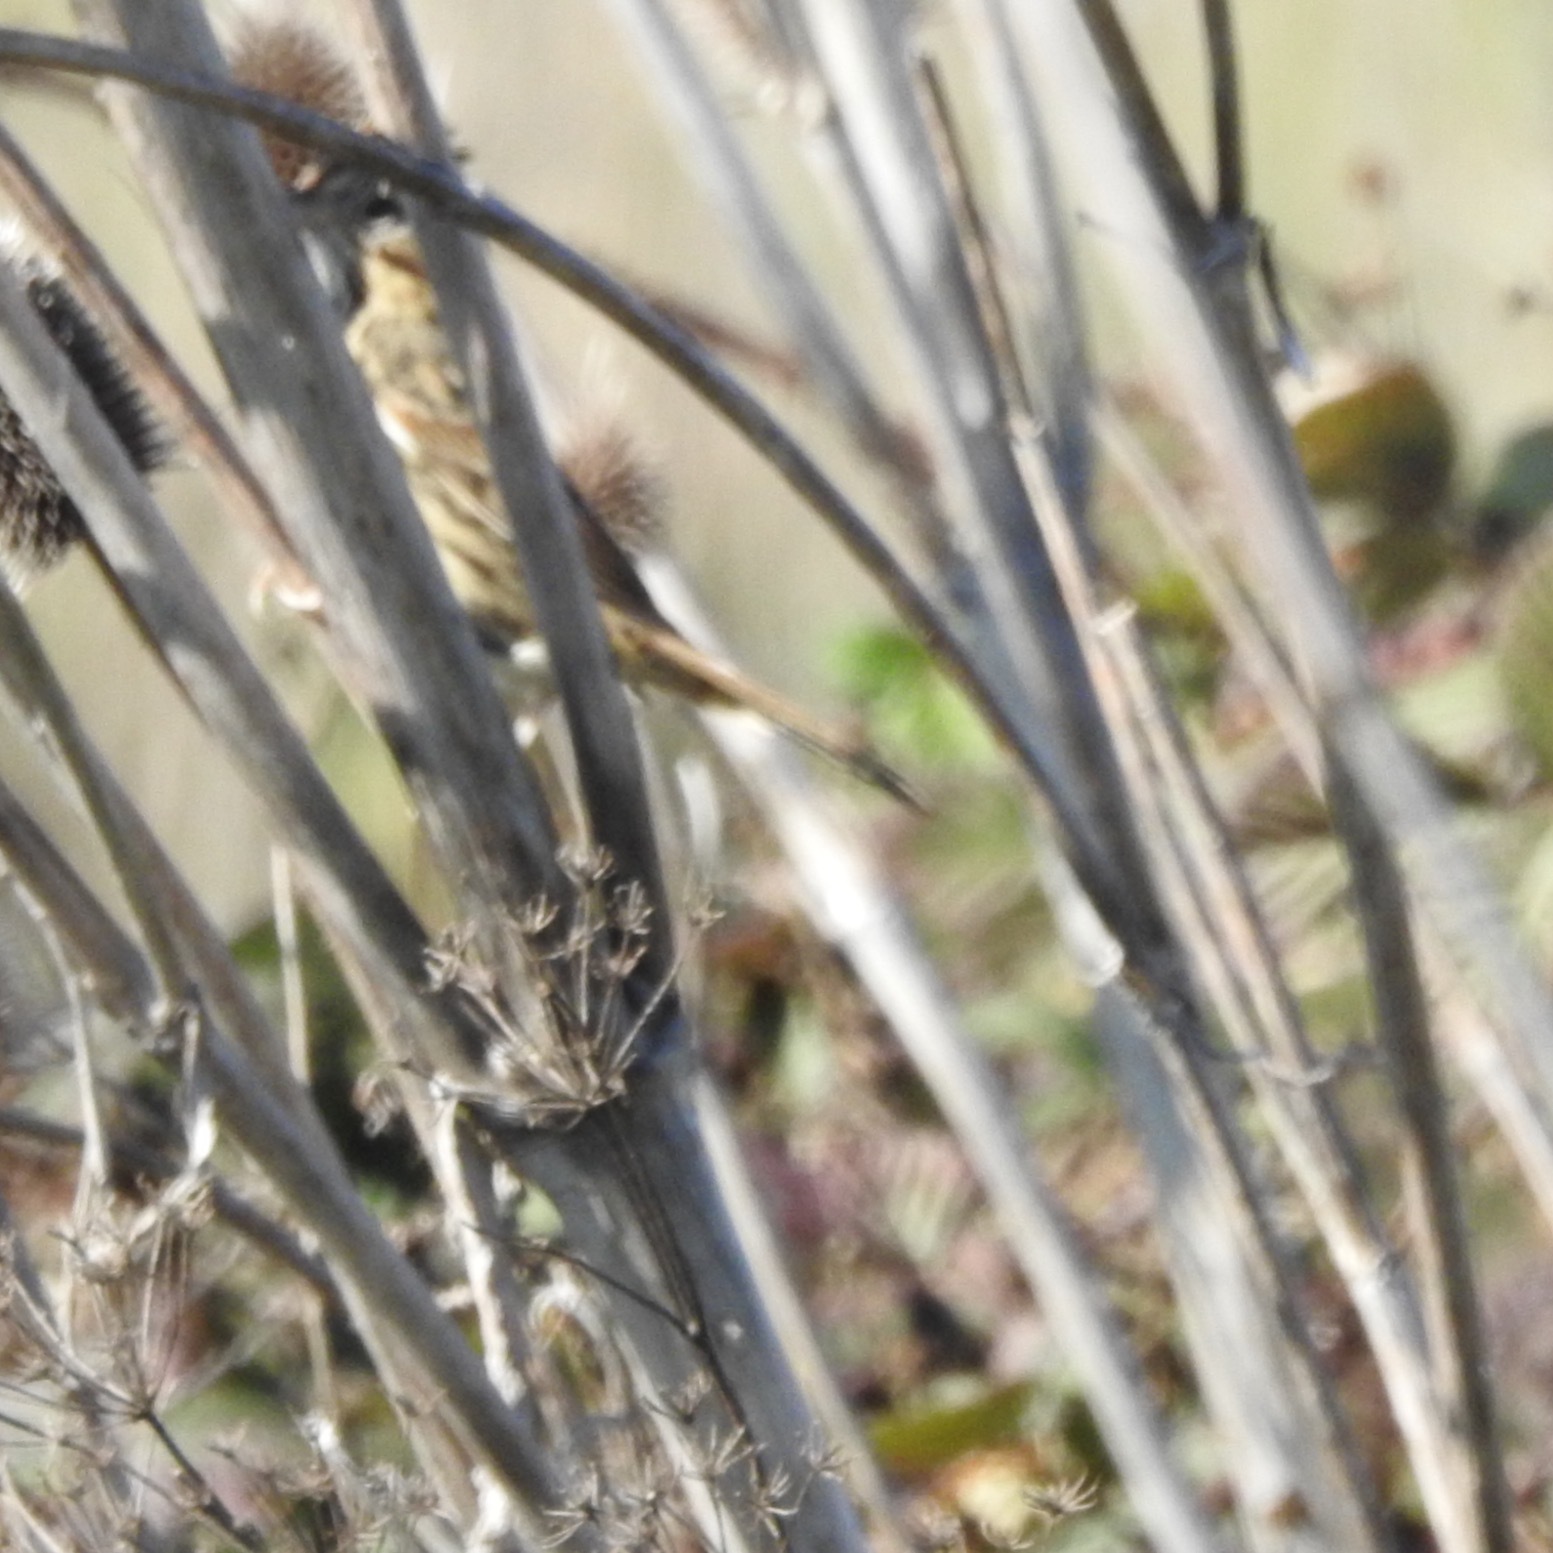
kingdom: Plantae
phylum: Tracheophyta
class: Magnoliopsida
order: Dipsacales
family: Caprifoliaceae
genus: Dipsacus
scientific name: Dipsacus sativus
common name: Fuller's teasel
